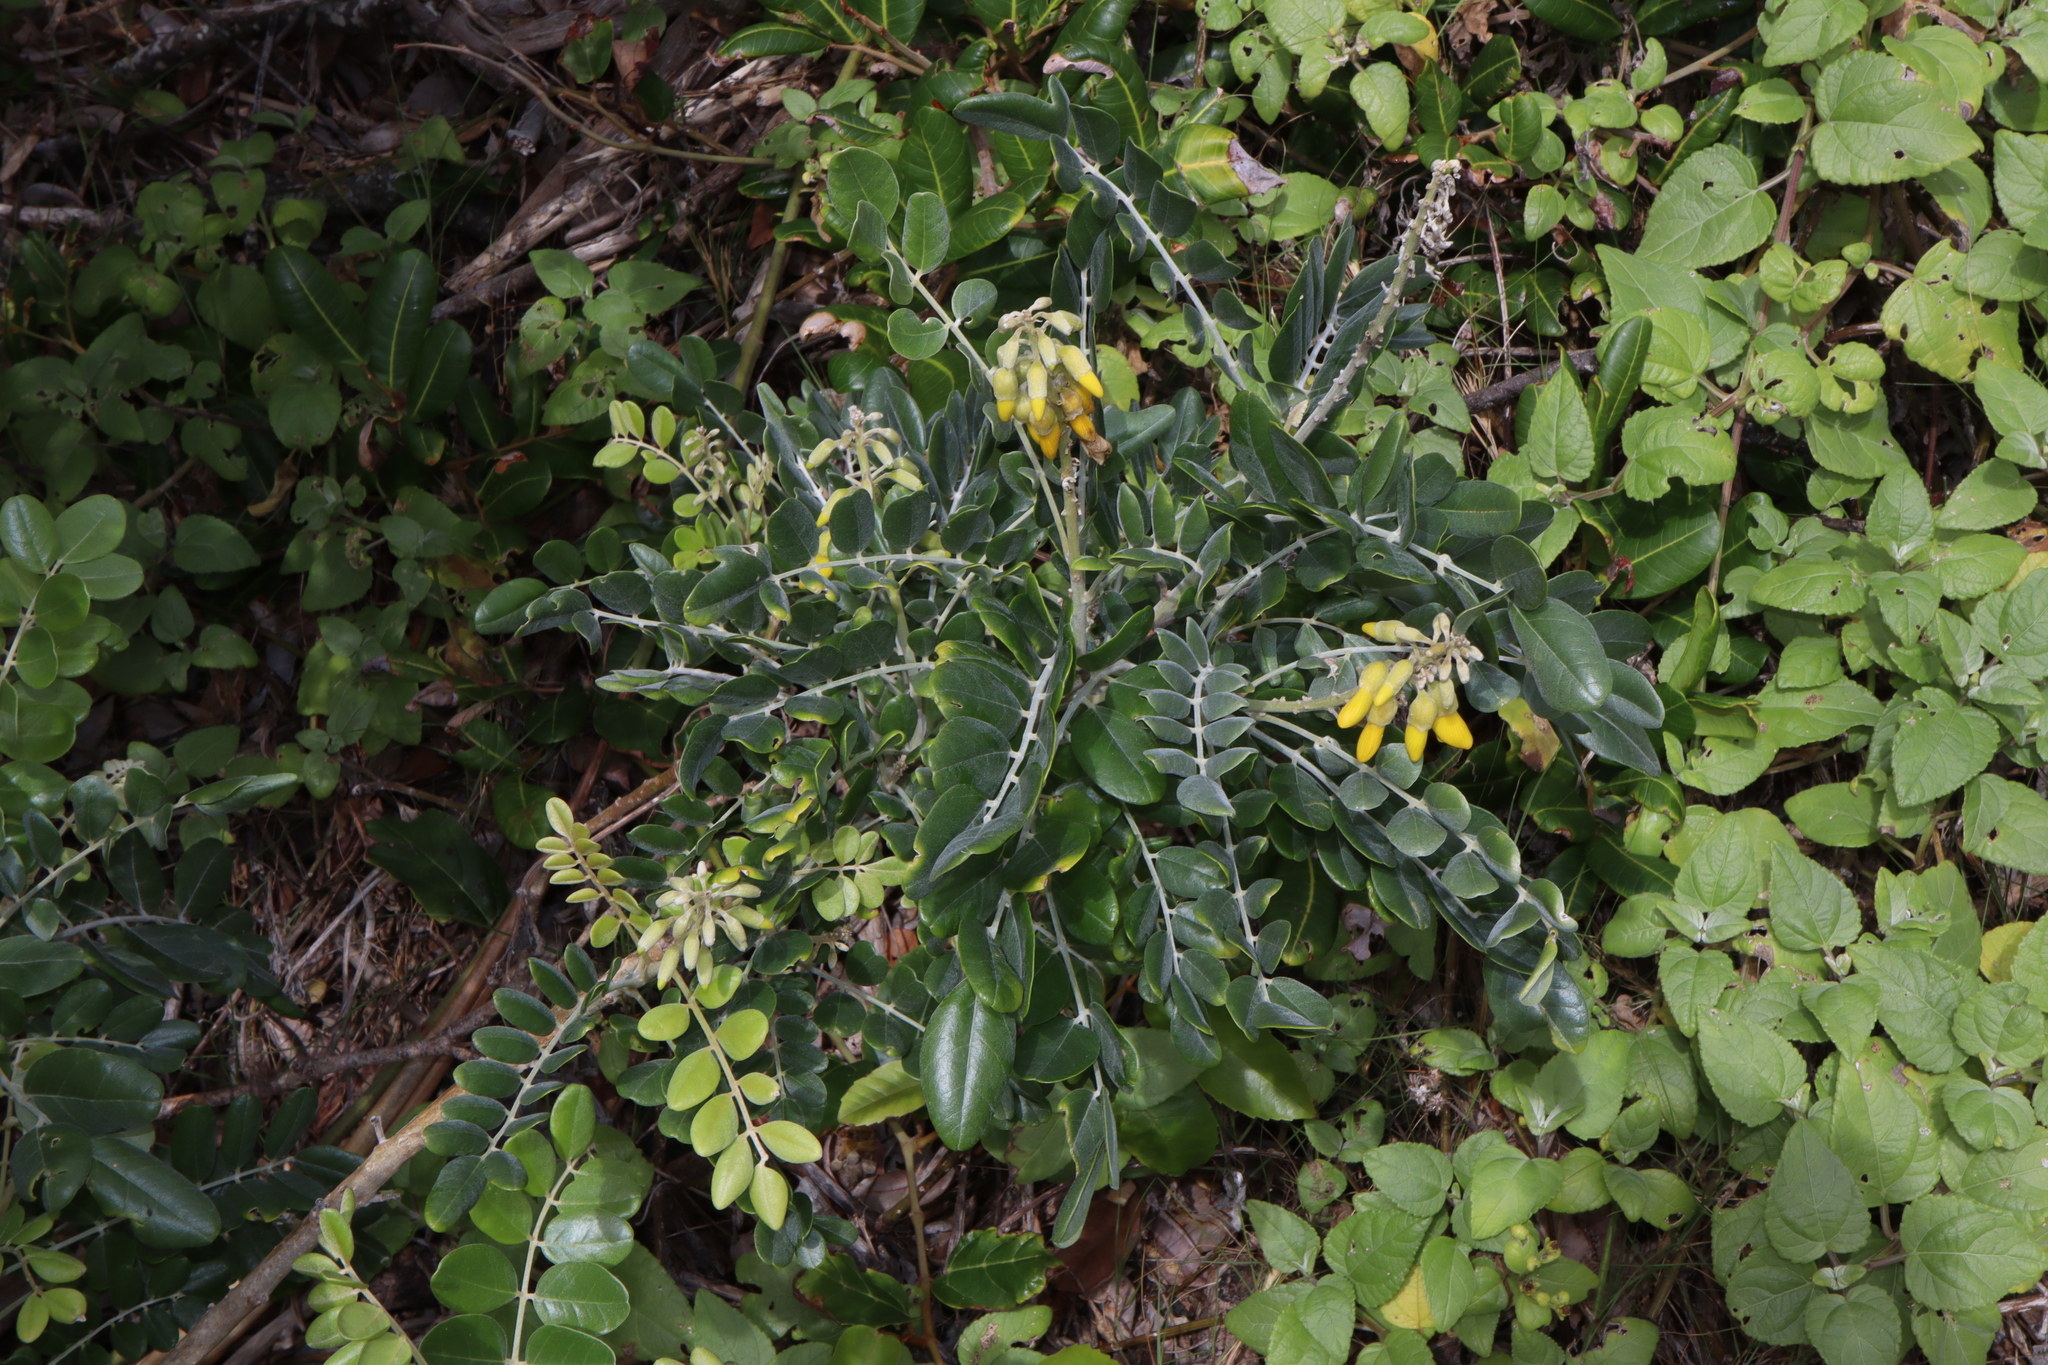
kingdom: Plantae
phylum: Tracheophyta
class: Magnoliopsida
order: Fabales
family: Fabaceae
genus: Sophora
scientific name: Sophora tomentosa
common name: Yellow necklacepod
